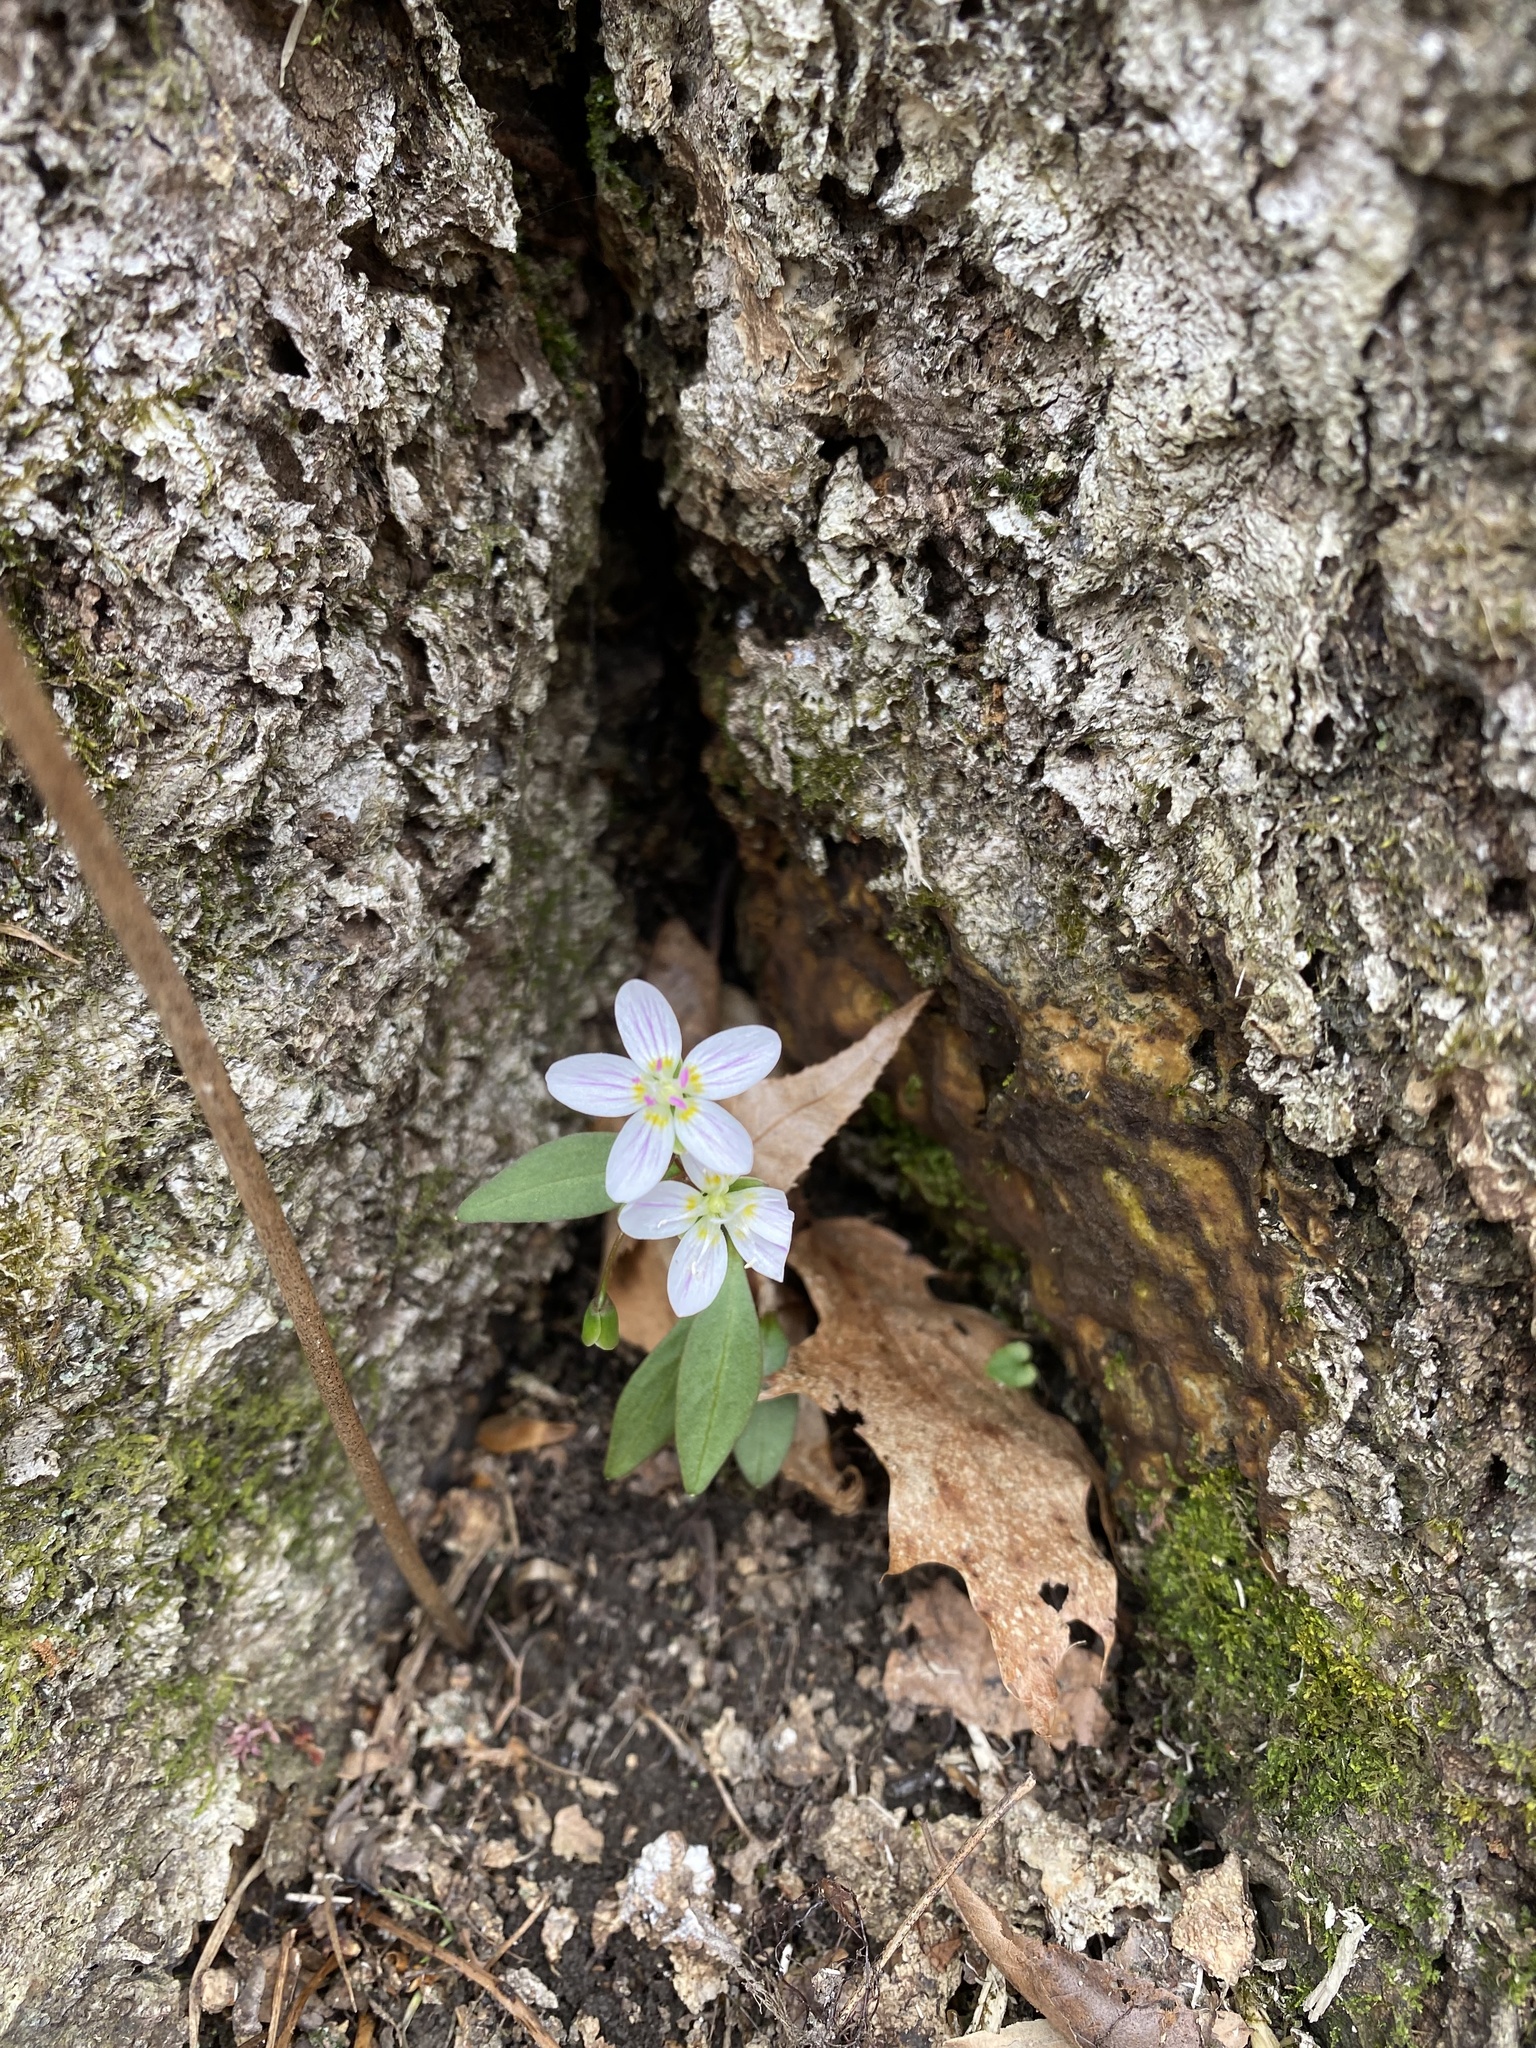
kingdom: Plantae
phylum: Tracheophyta
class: Magnoliopsida
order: Caryophyllales
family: Montiaceae
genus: Claytonia
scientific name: Claytonia caroliniana
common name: Carolina spring beauty
